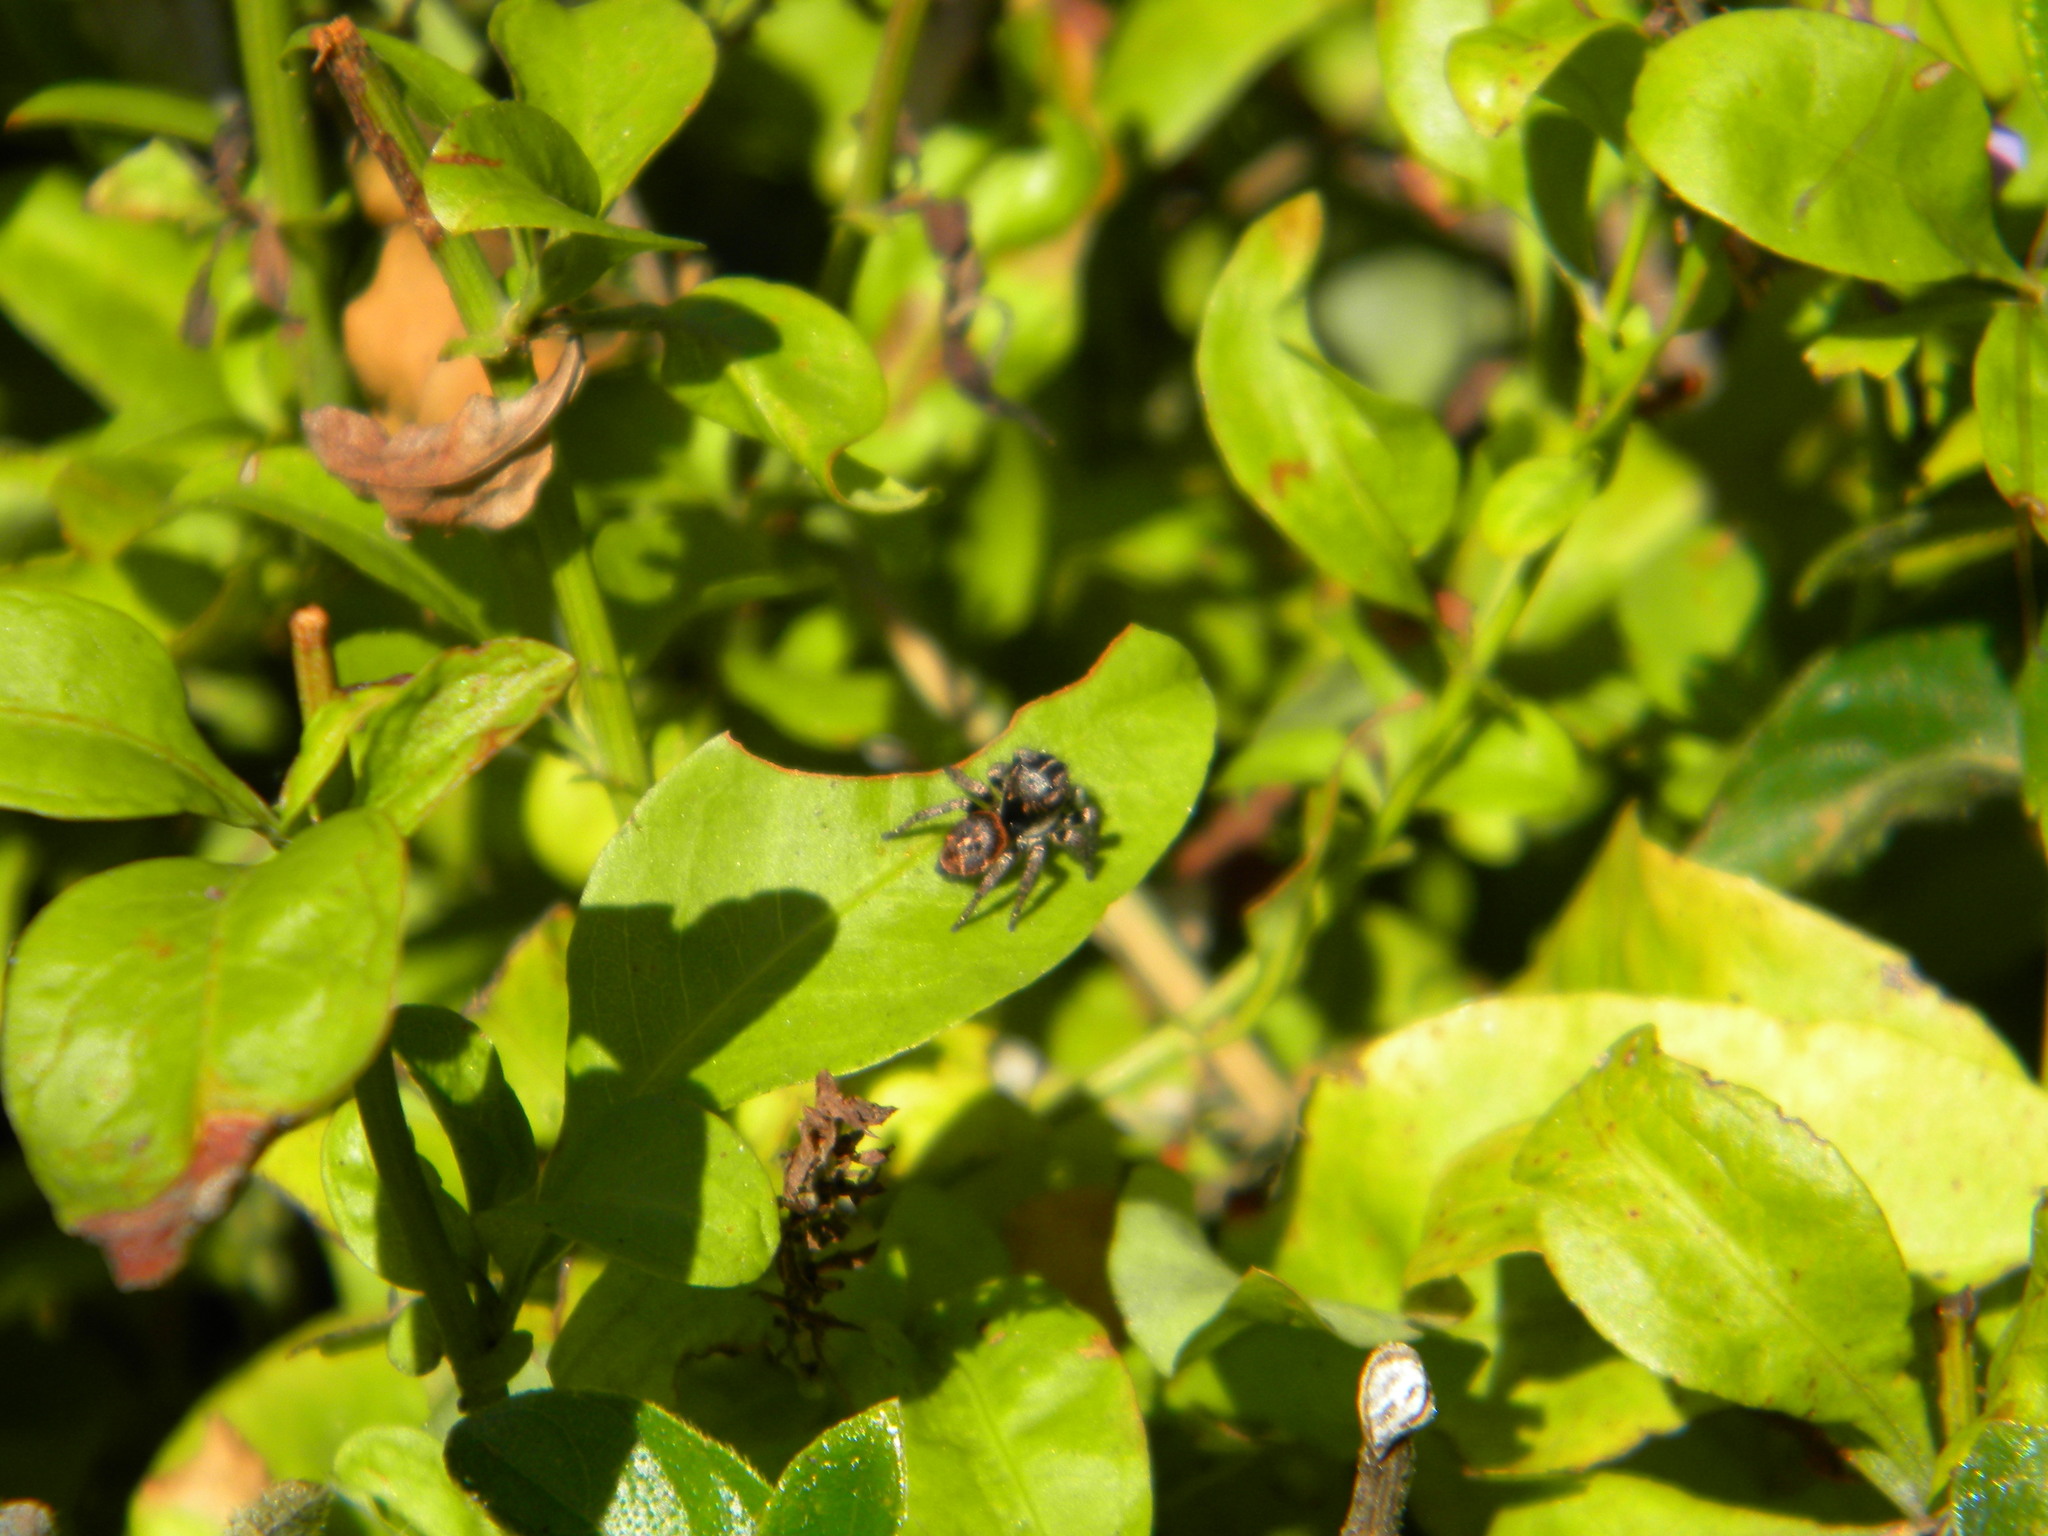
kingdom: Animalia
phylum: Arthropoda
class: Arachnida
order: Araneae
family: Salticidae
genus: Baryphas
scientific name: Baryphas ahenus
